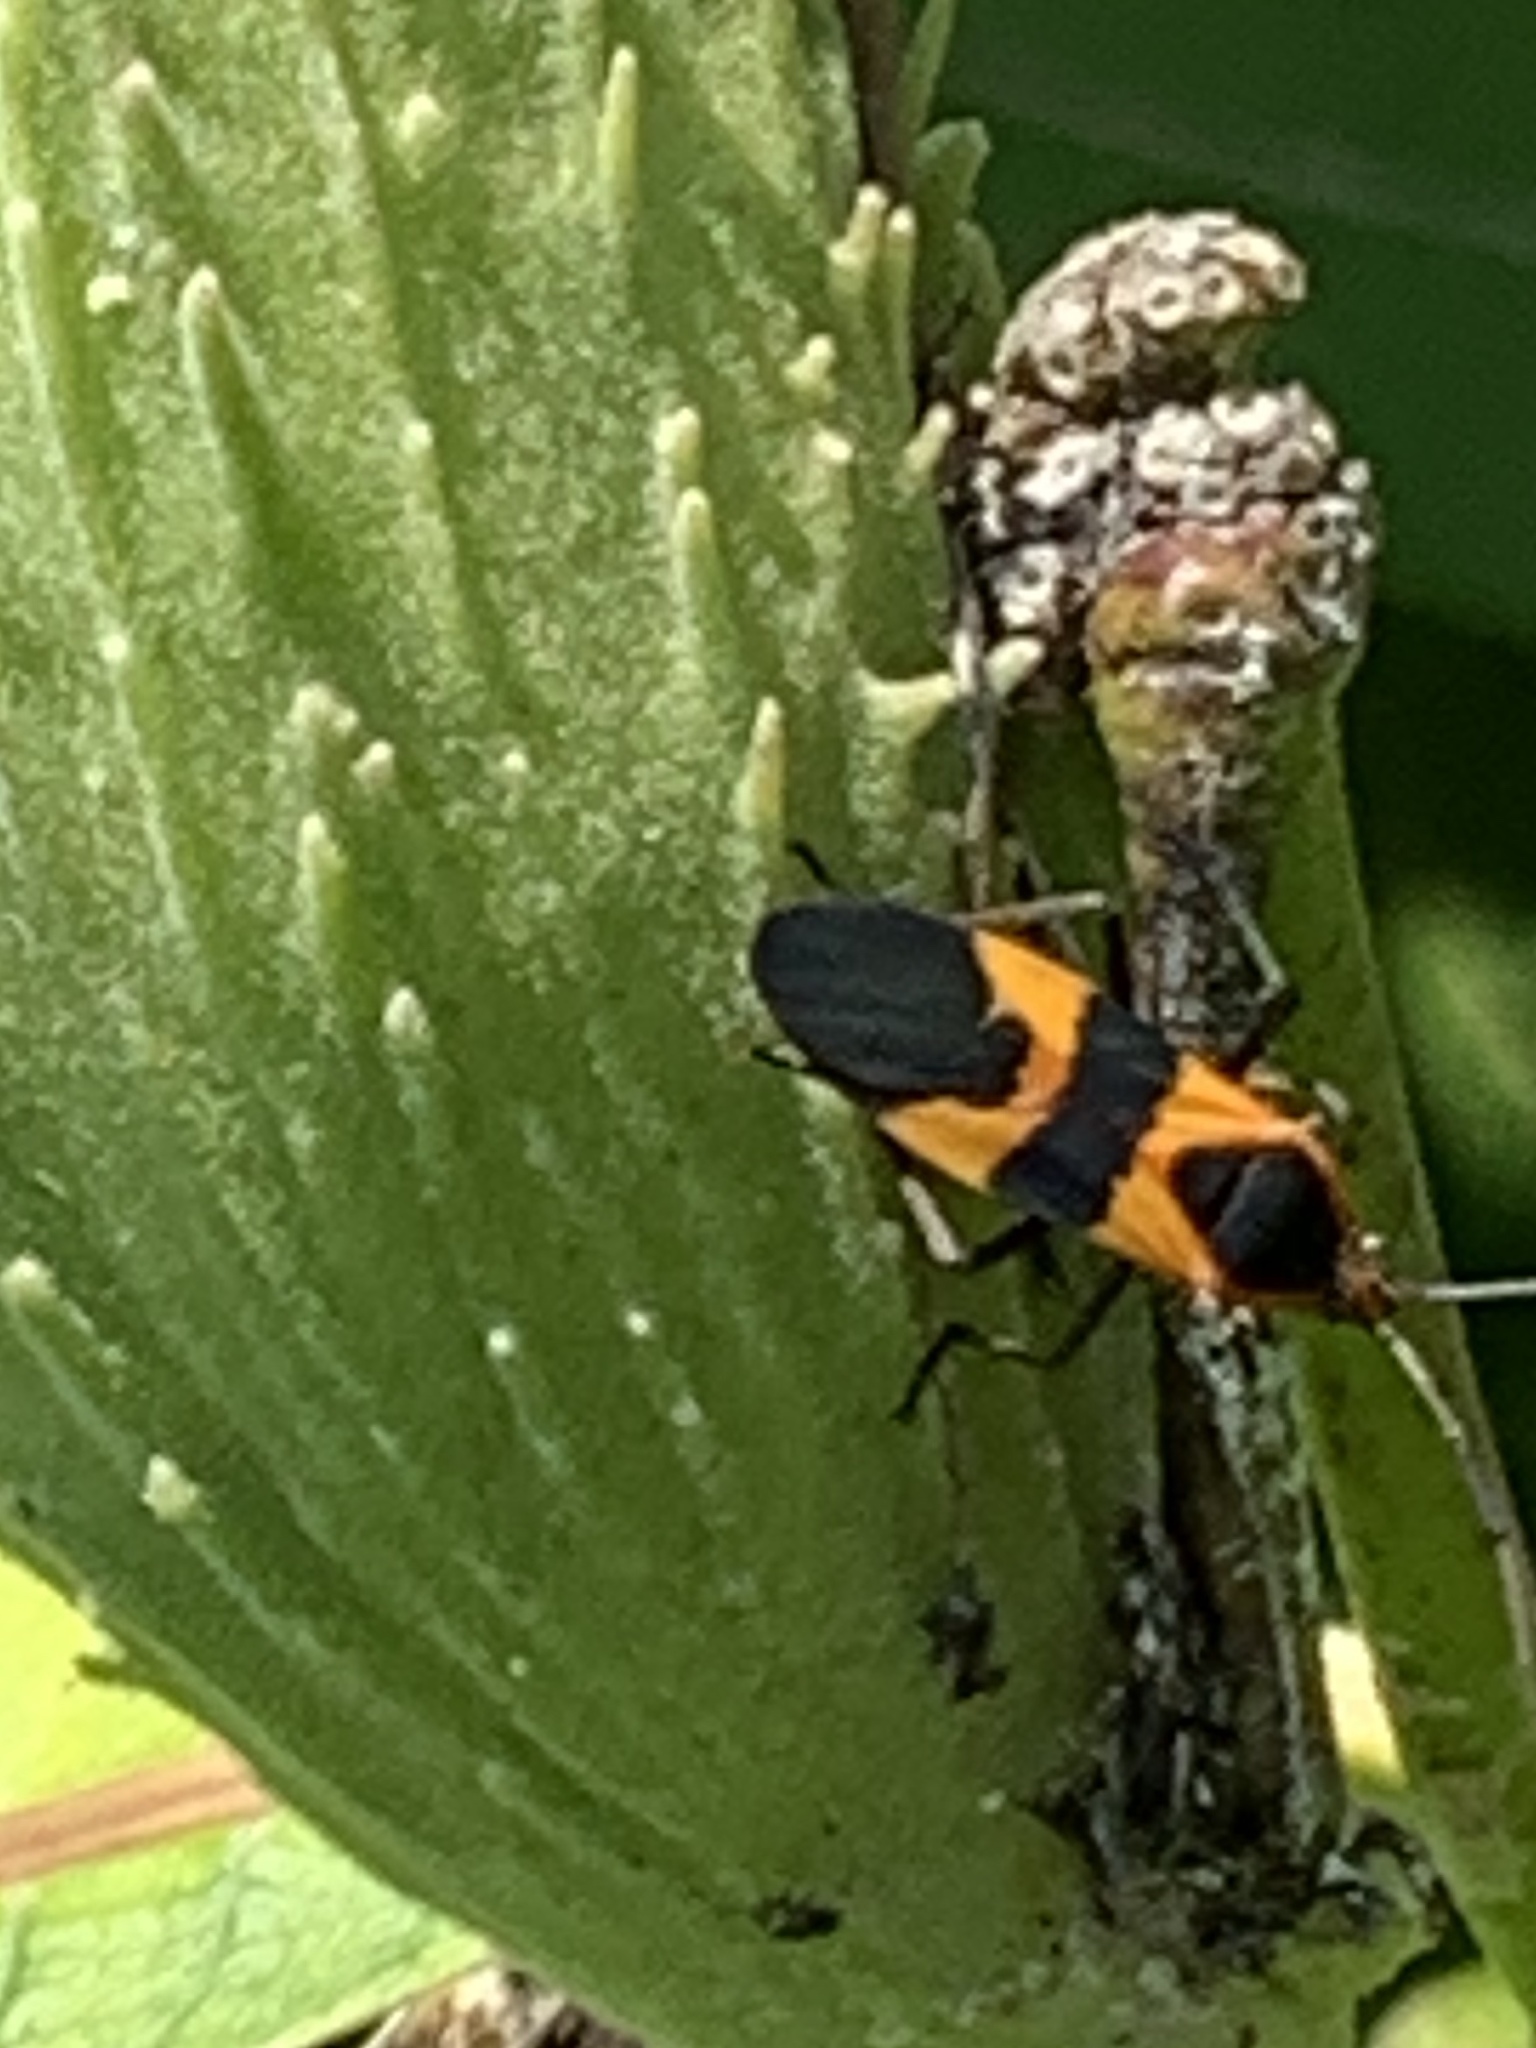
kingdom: Animalia
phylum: Arthropoda
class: Insecta
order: Hemiptera
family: Lygaeidae
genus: Oncopeltus
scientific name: Oncopeltus fasciatus
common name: Large milkweed bug
